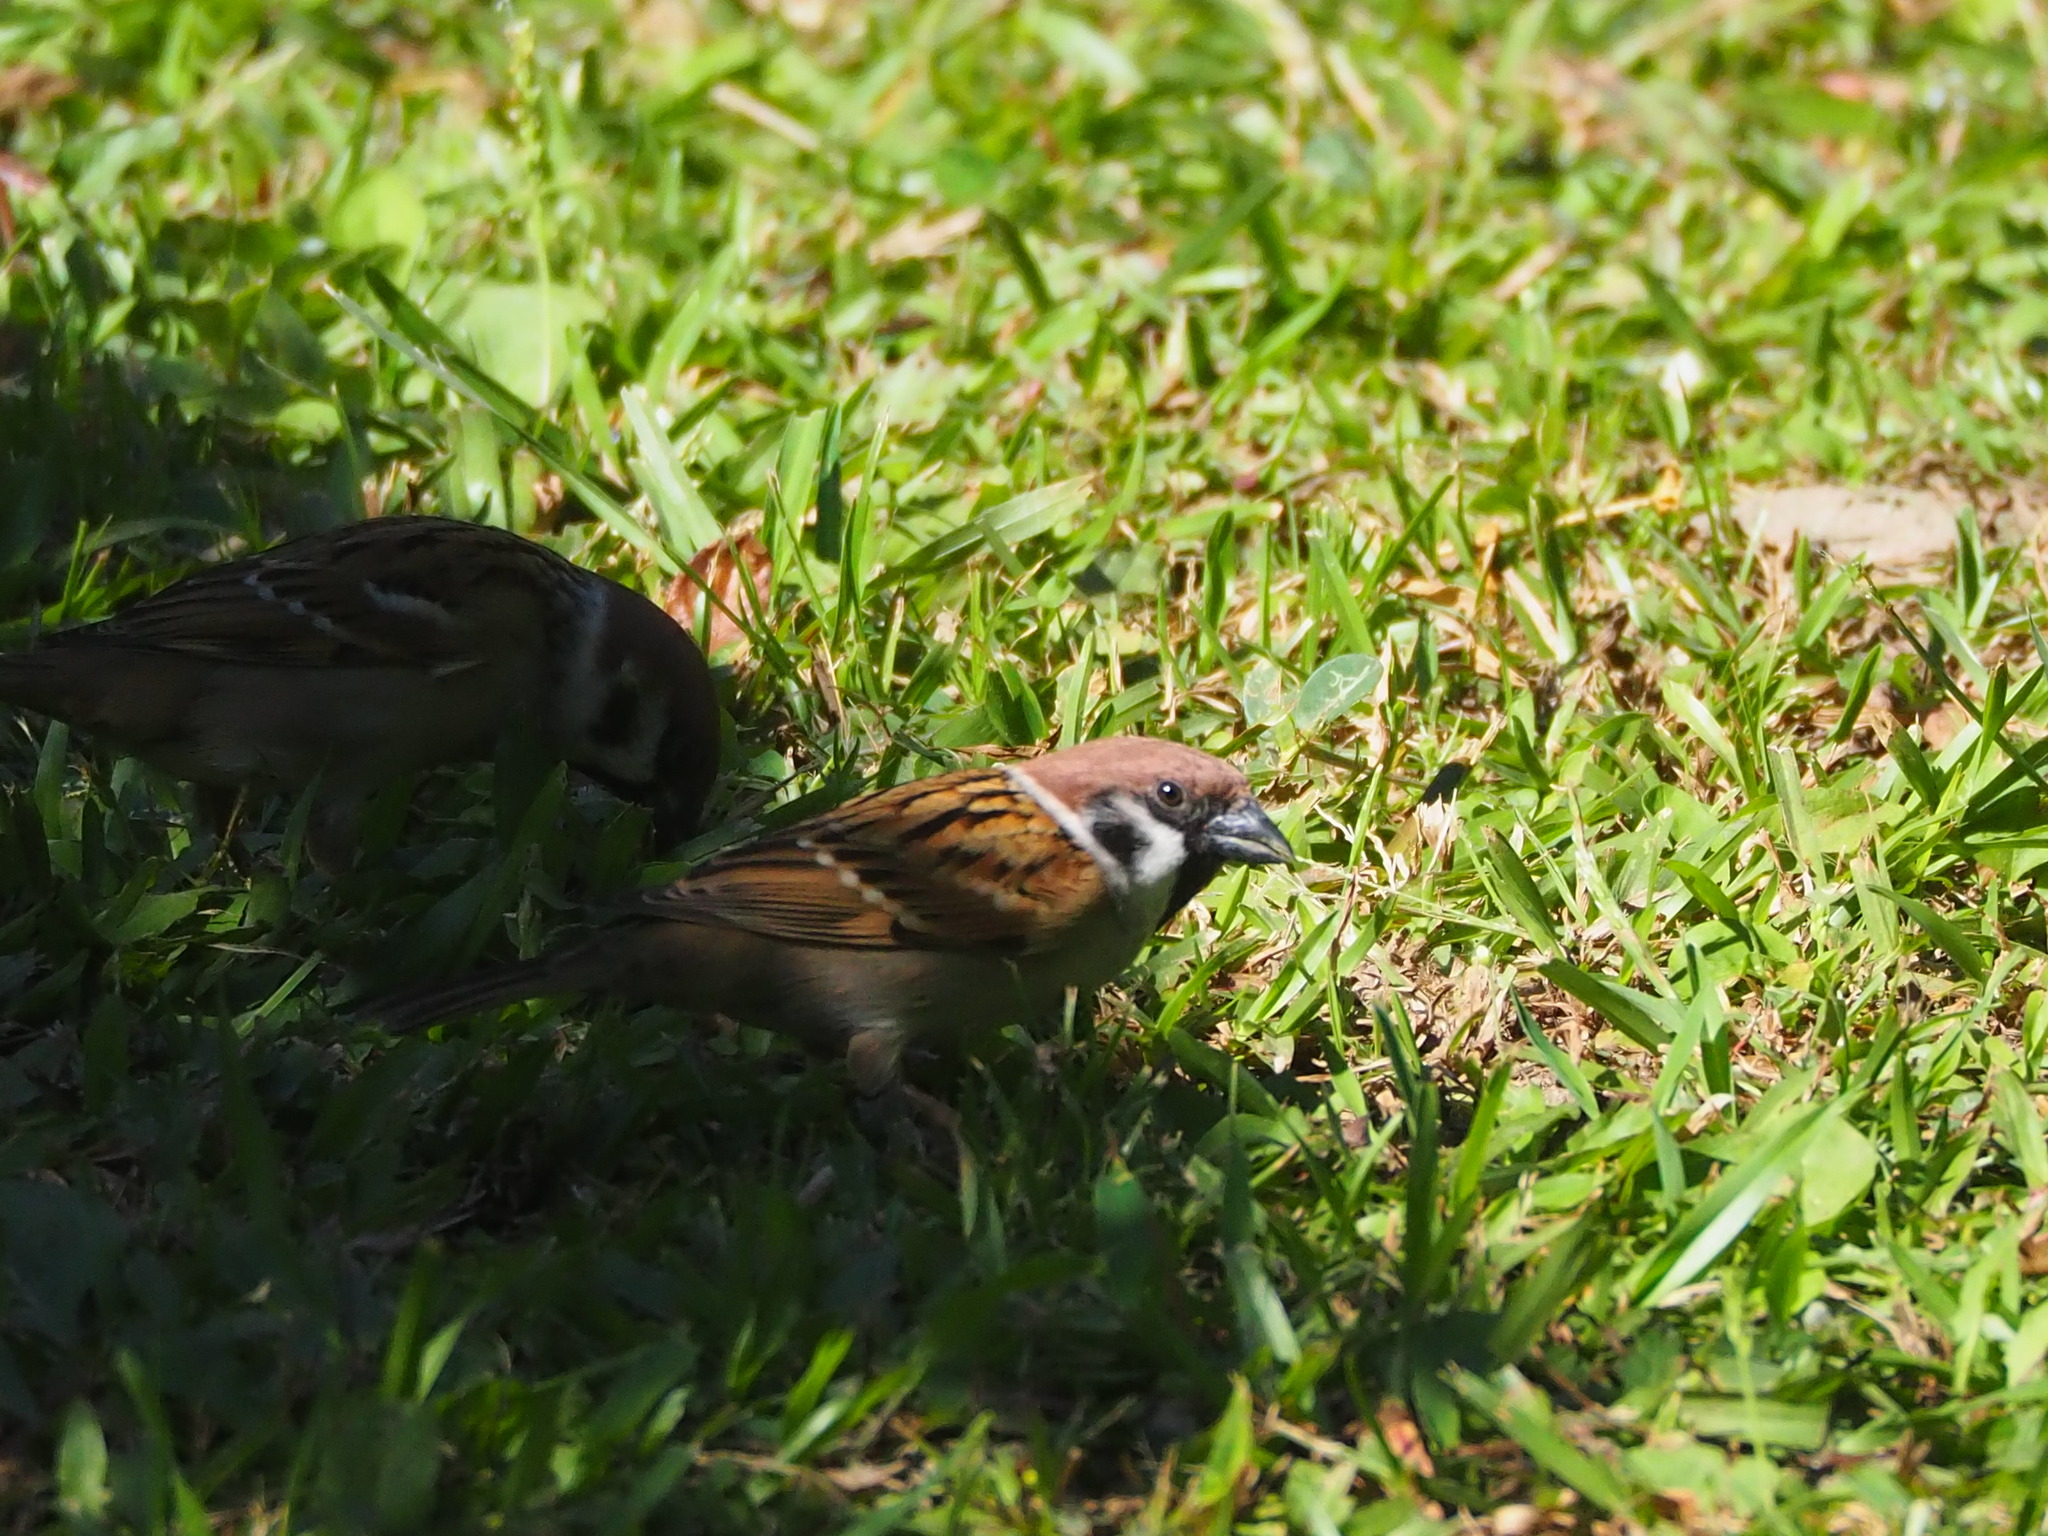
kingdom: Animalia
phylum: Chordata
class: Aves
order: Passeriformes
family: Passeridae
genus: Passer
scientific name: Passer montanus
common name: Eurasian tree sparrow
